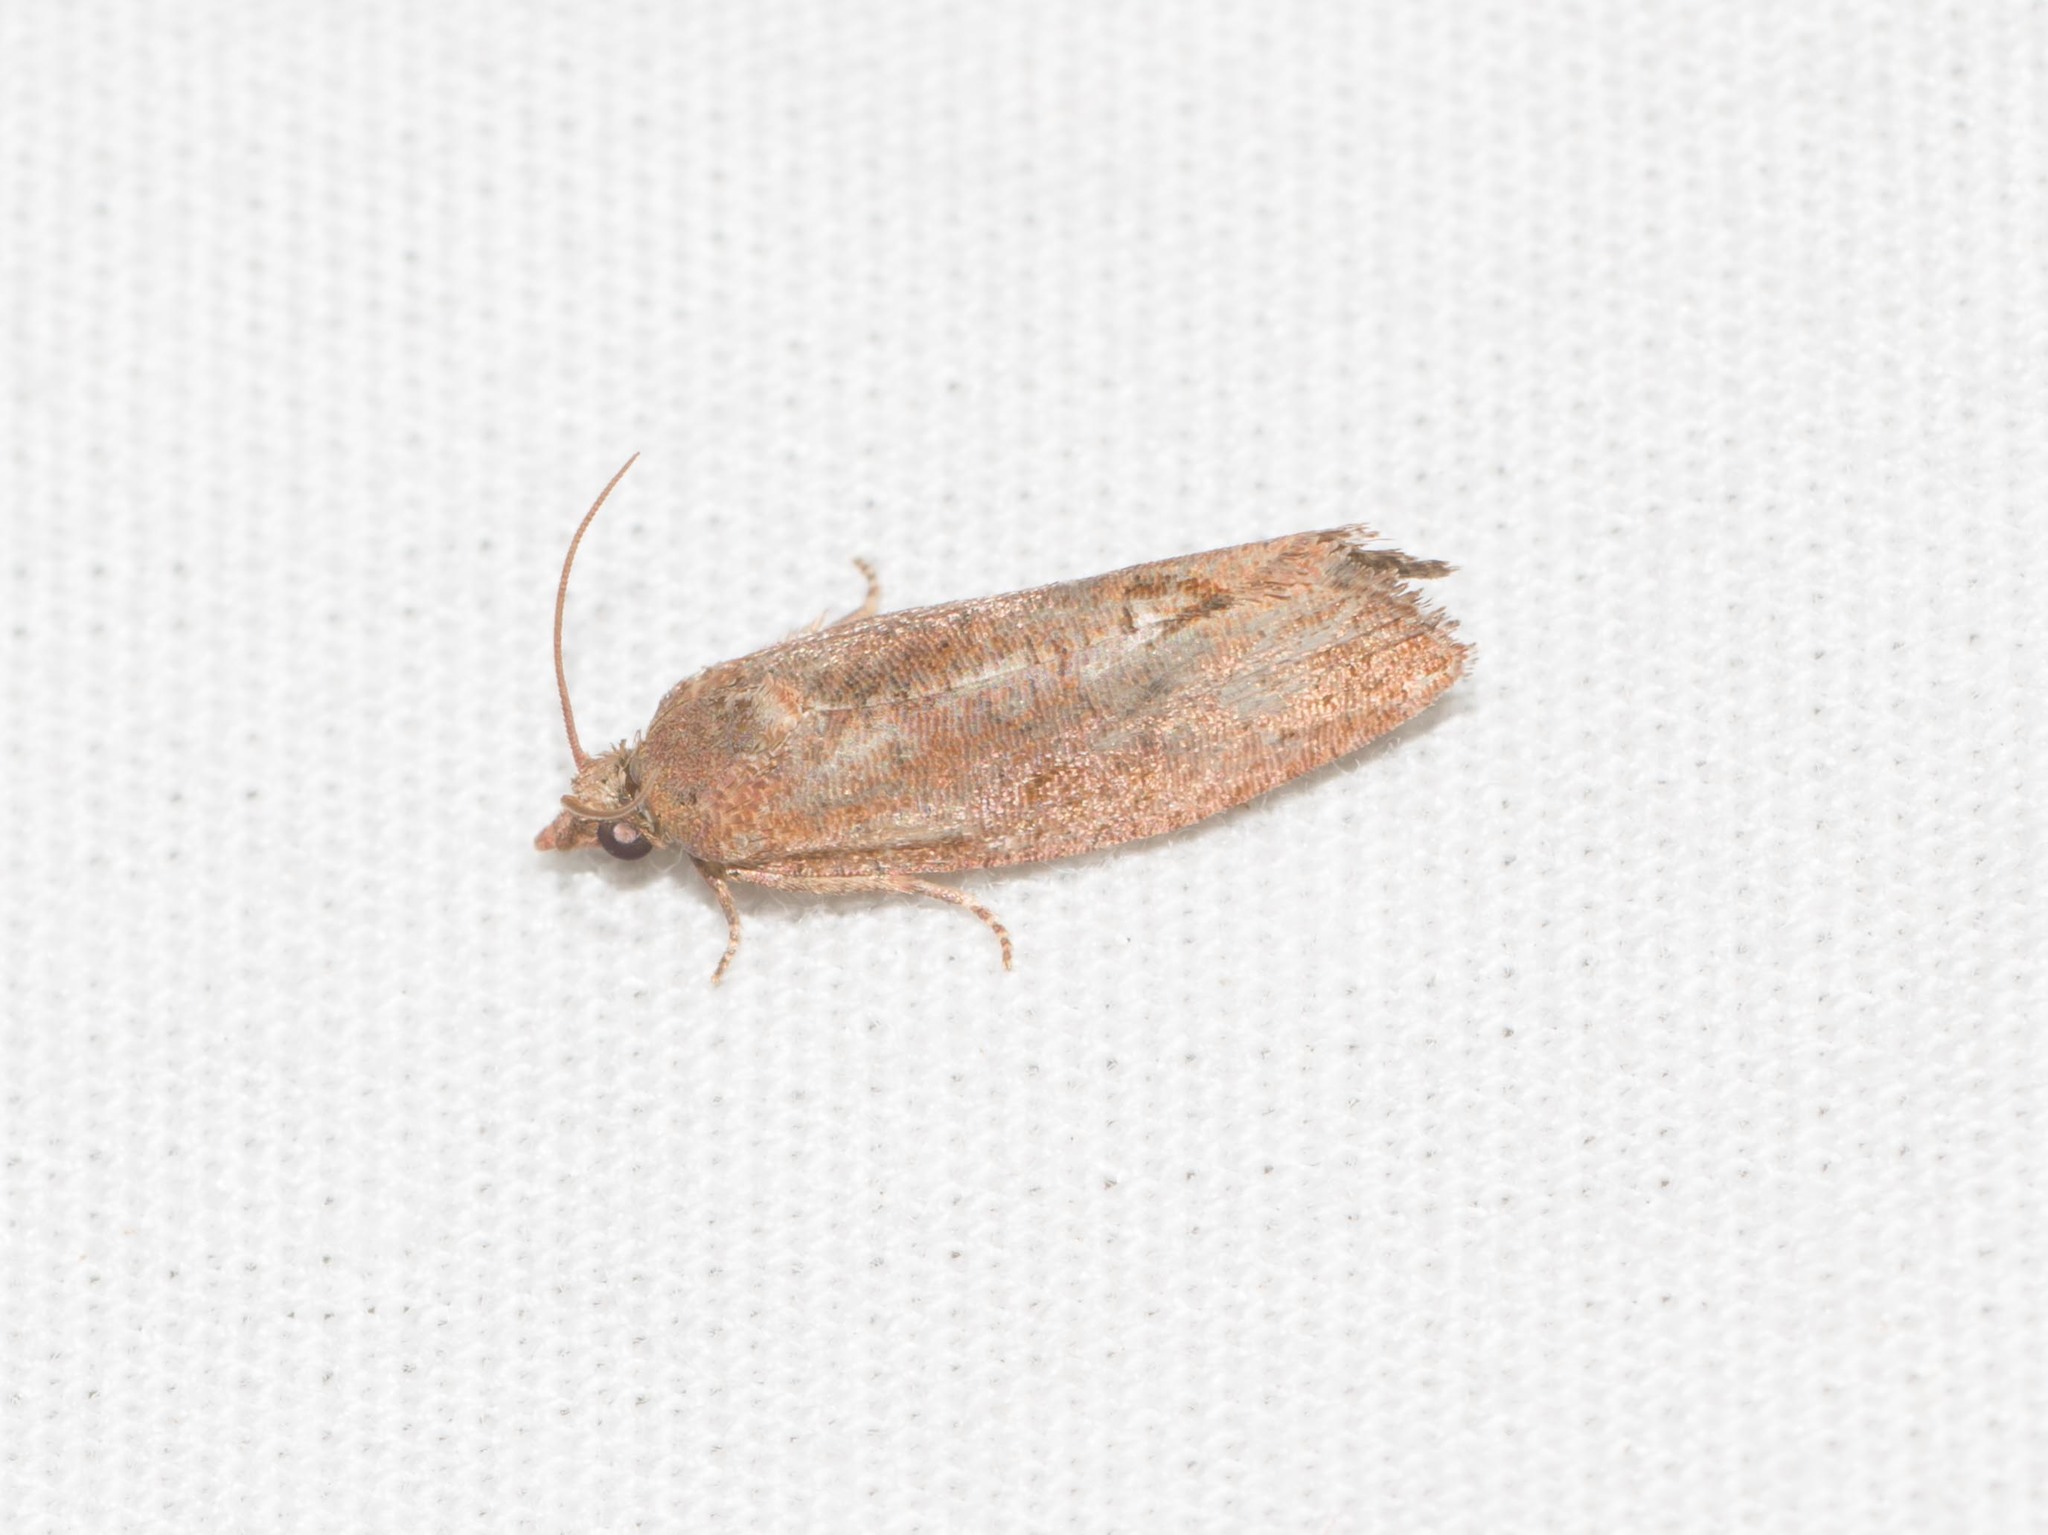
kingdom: Animalia
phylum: Arthropoda
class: Insecta
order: Lepidoptera
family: Tortricidae
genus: Cryptophlebia
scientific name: Cryptophlebia illepida
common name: Moth
